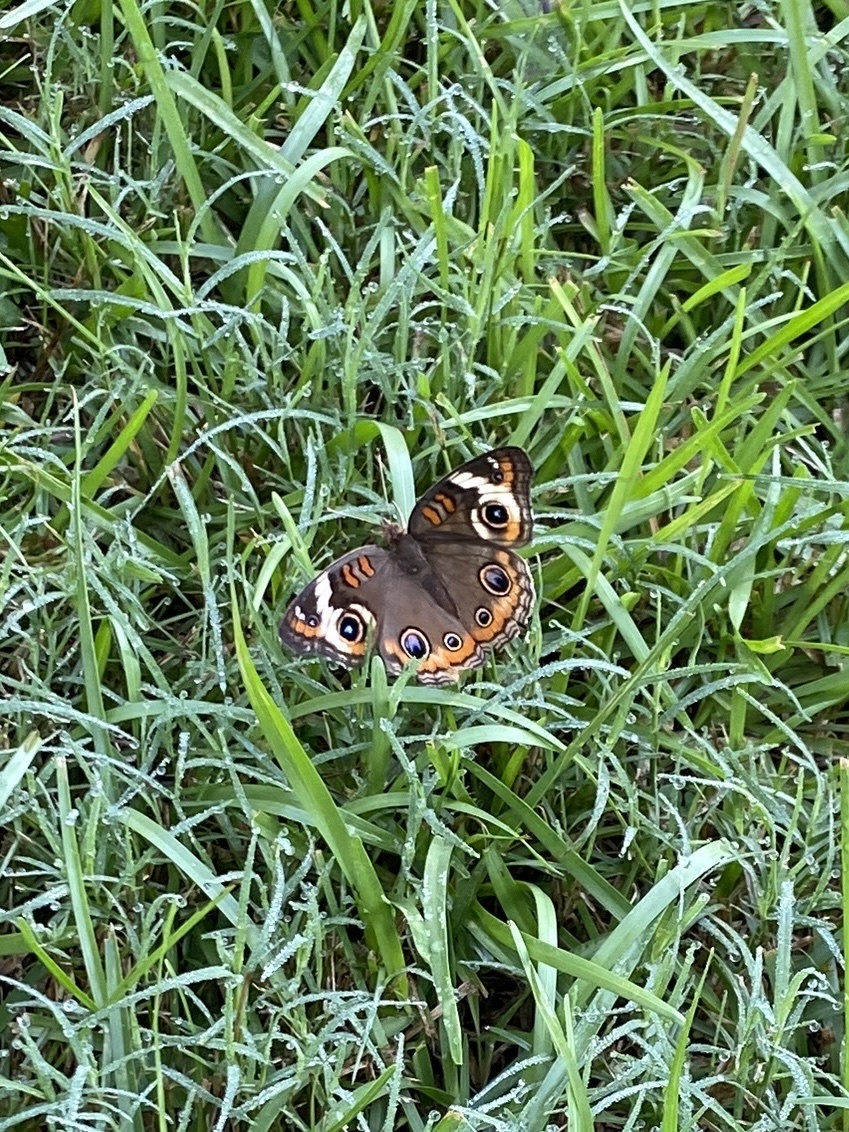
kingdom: Animalia
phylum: Arthropoda
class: Insecta
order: Lepidoptera
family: Nymphalidae
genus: Junonia
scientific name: Junonia coenia
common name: Common buckeye
